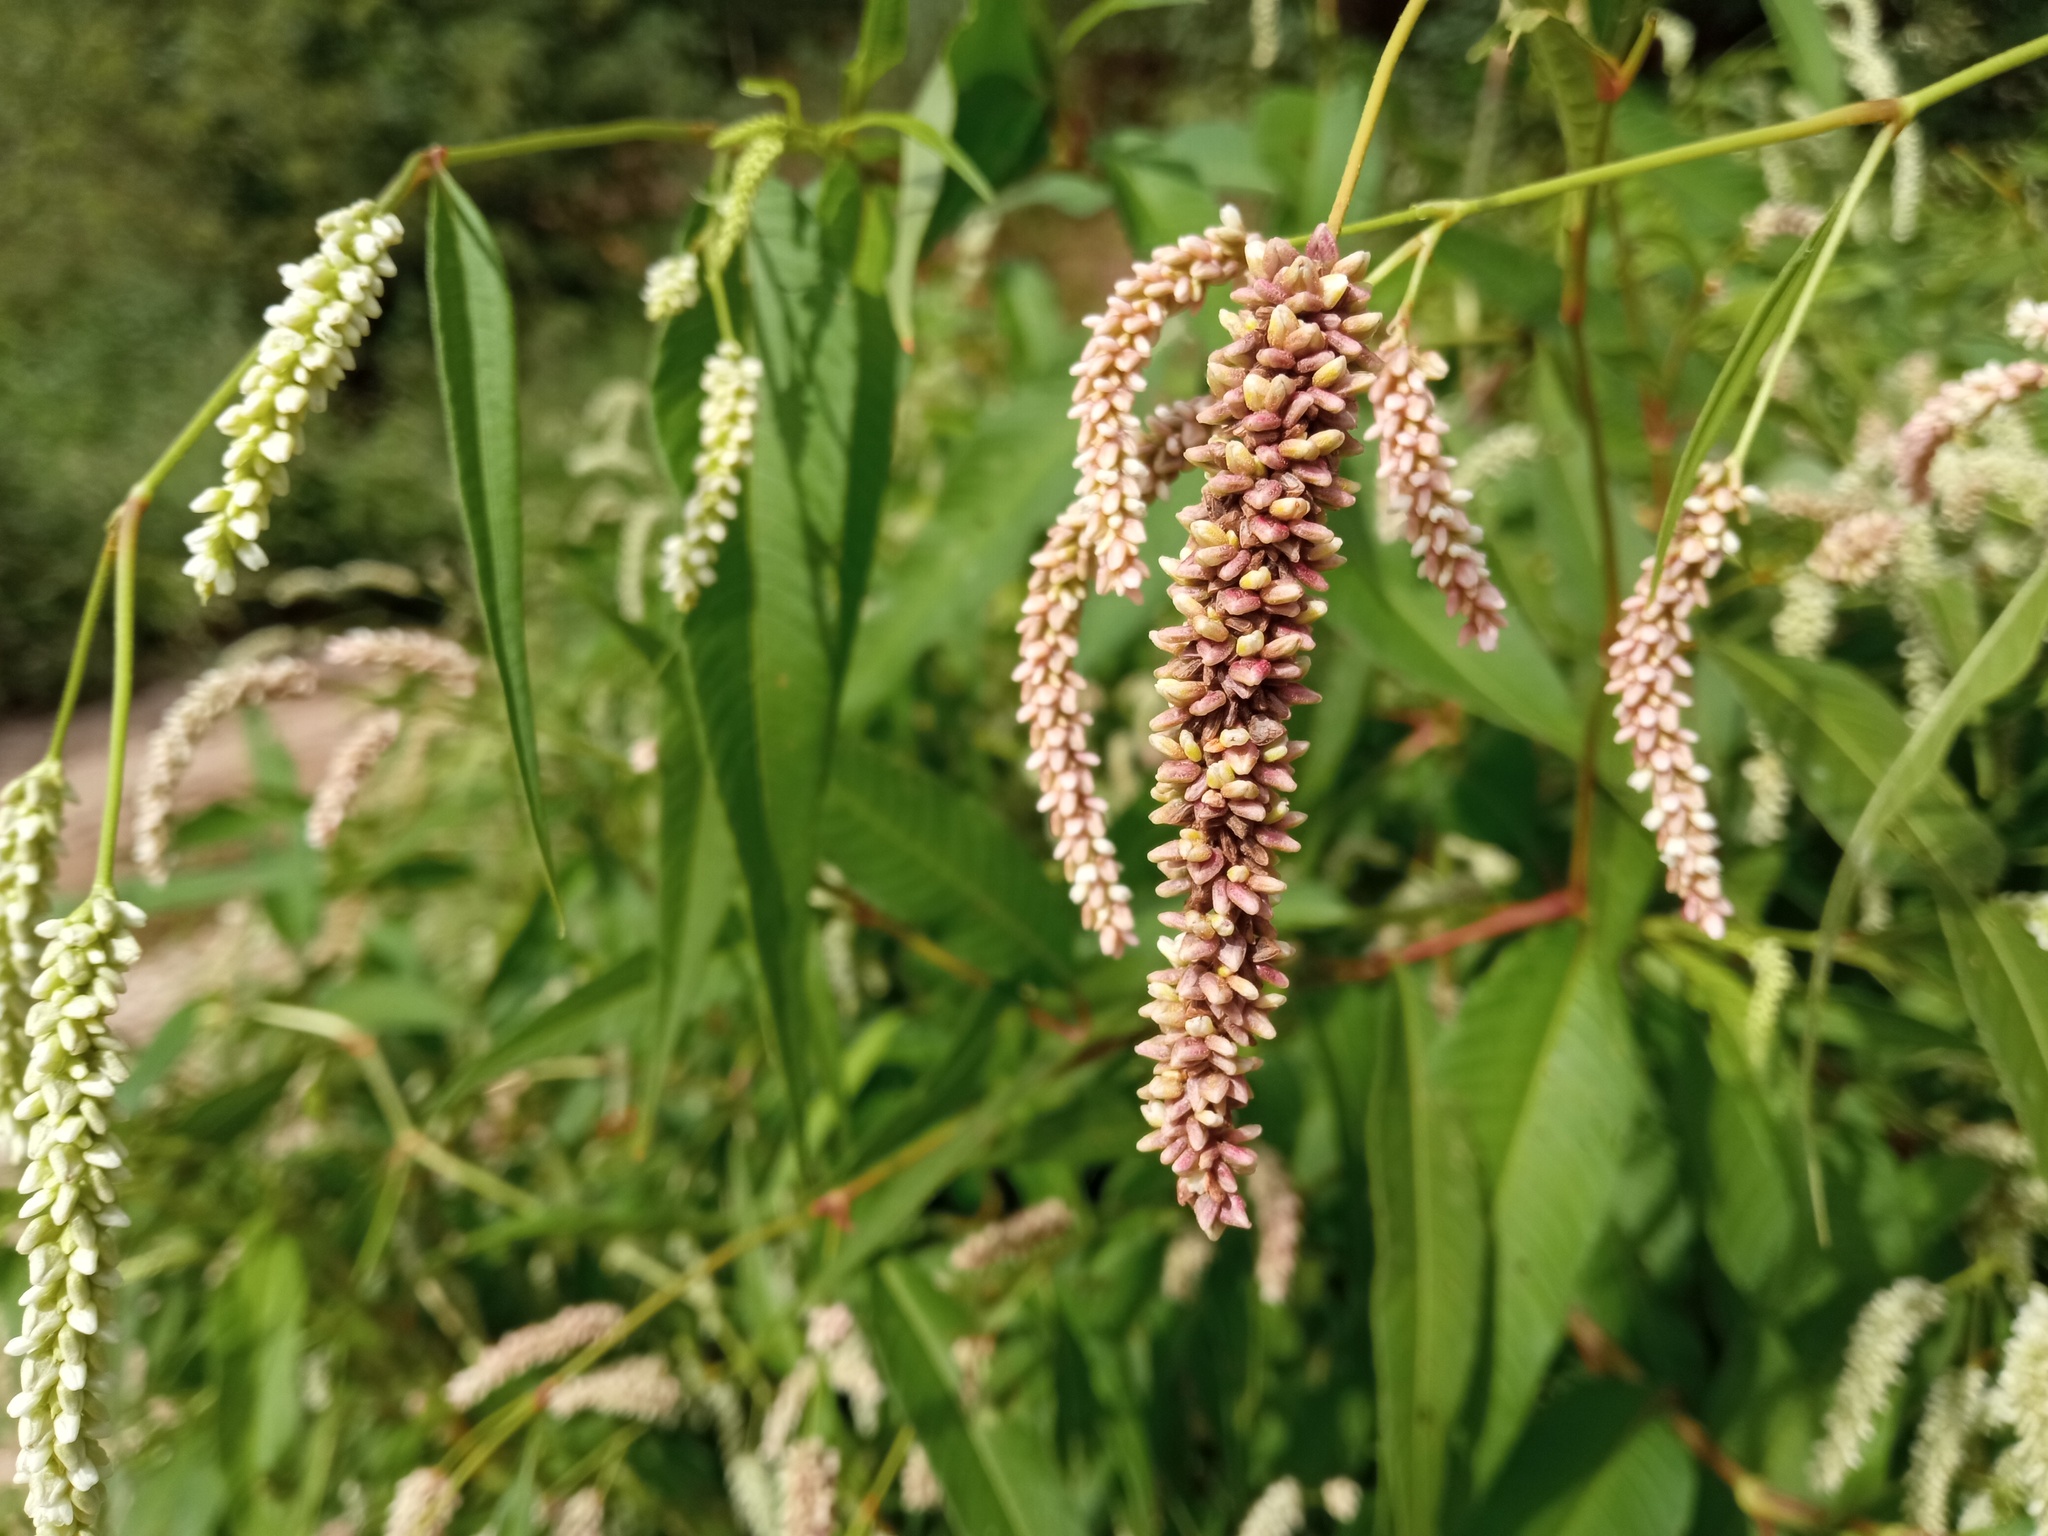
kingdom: Plantae
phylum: Tracheophyta
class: Magnoliopsida
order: Caryophyllales
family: Polygonaceae
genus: Persicaria
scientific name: Persicaria lapathifolia
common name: Curlytop knotweed
